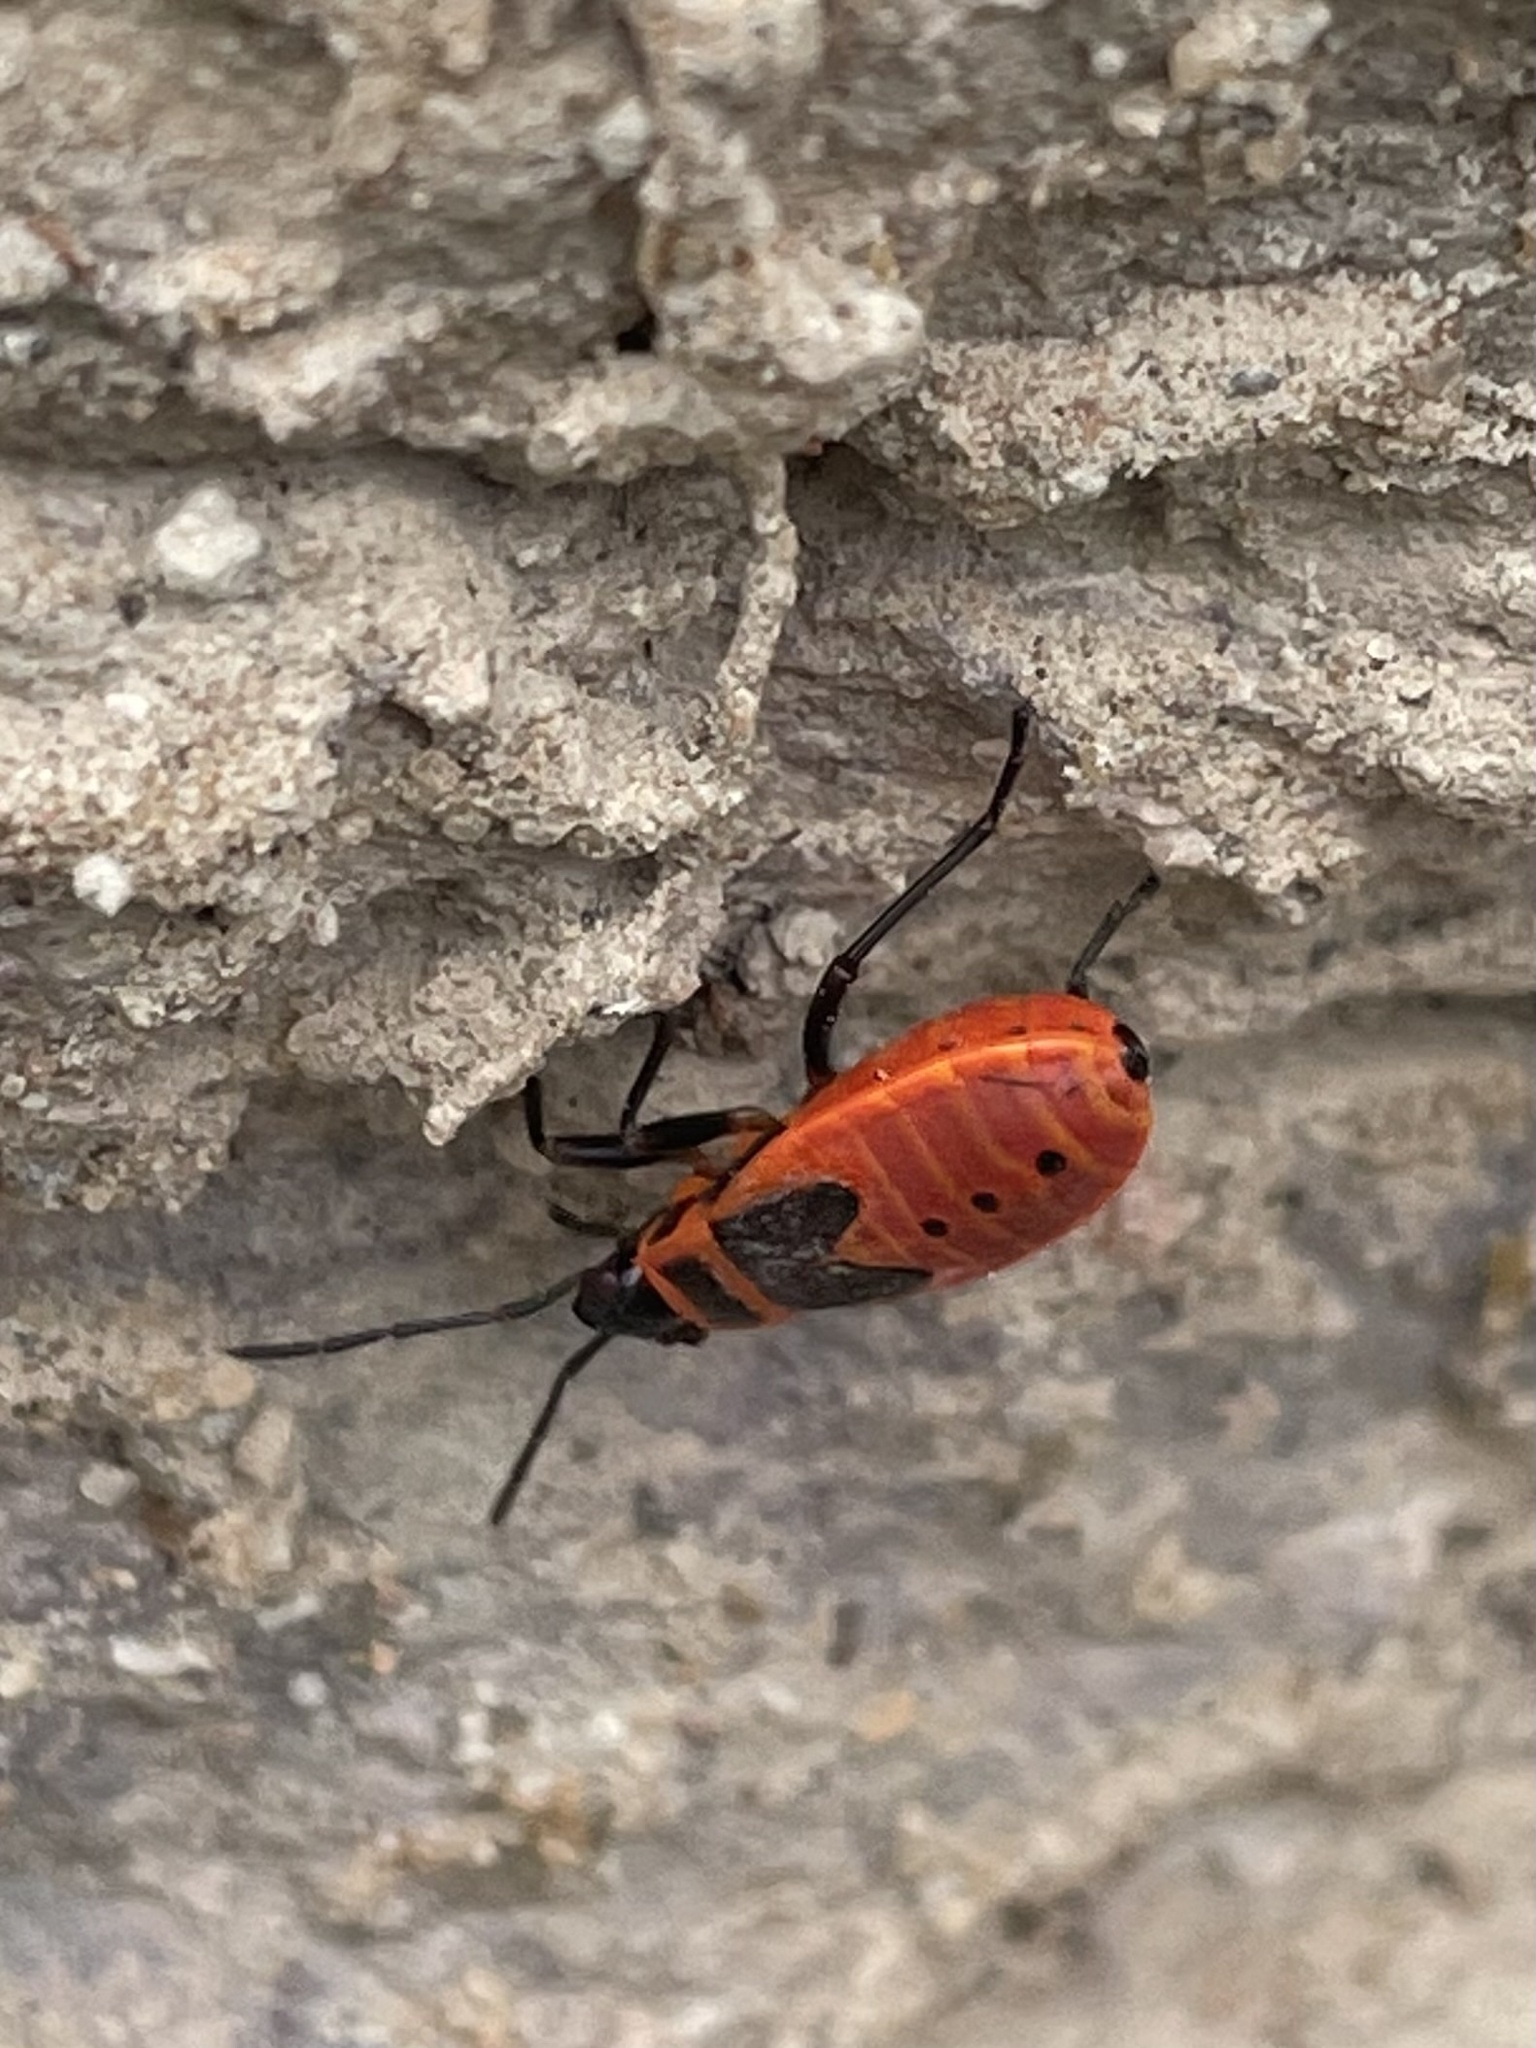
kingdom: Animalia
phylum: Arthropoda
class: Insecta
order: Hemiptera
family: Pyrrhocoridae
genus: Pyrrhocoris
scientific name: Pyrrhocoris apterus
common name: Firebug
